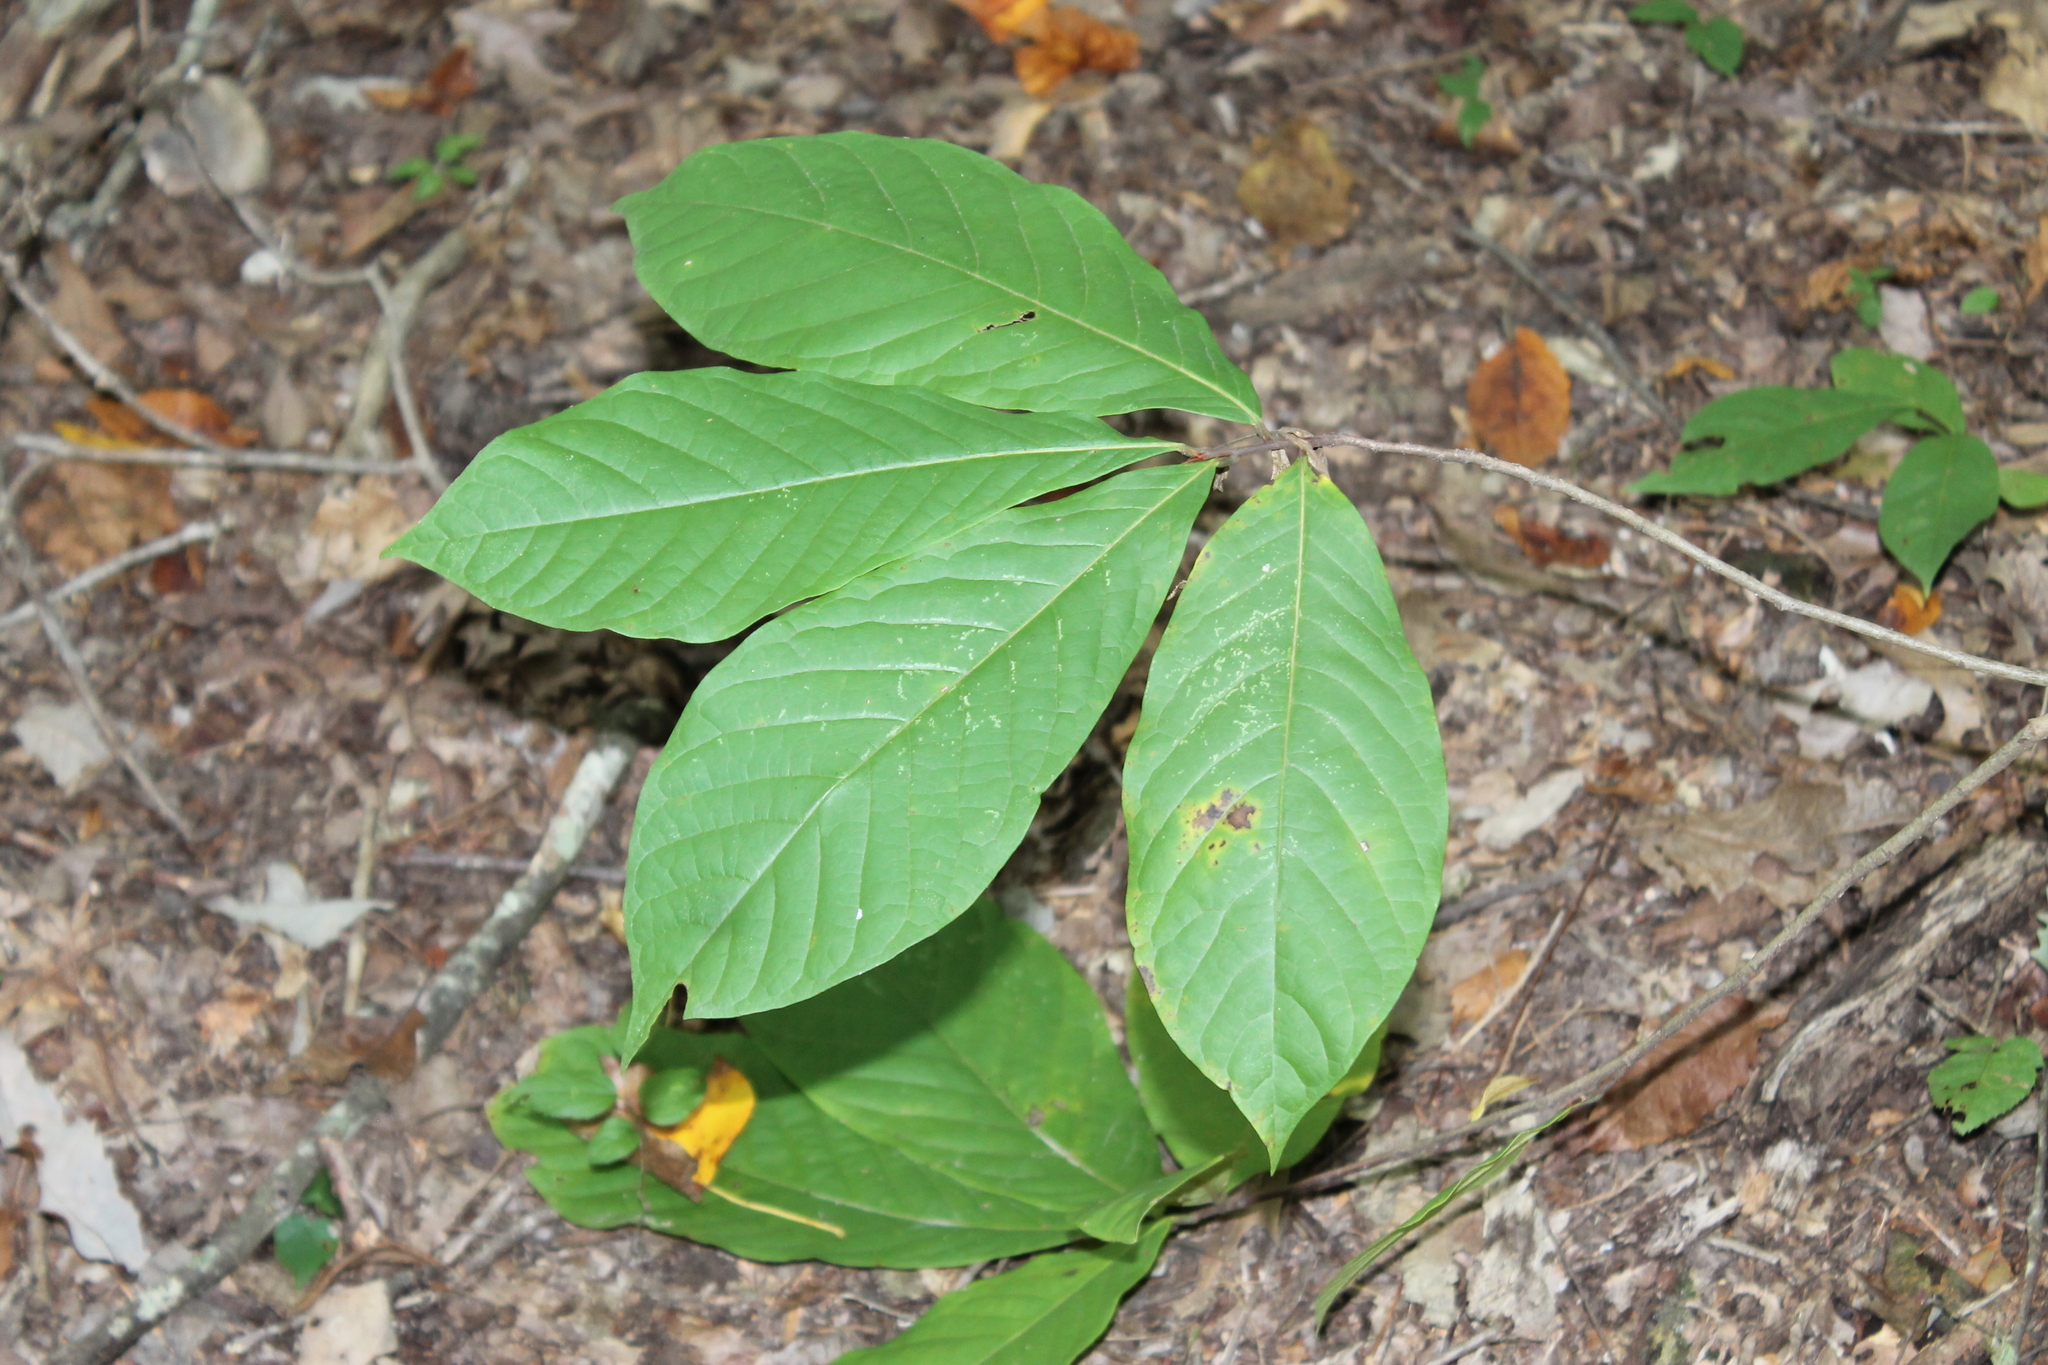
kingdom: Plantae
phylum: Tracheophyta
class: Magnoliopsida
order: Magnoliales
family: Annonaceae
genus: Asimina
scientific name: Asimina triloba
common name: Dog-banana
